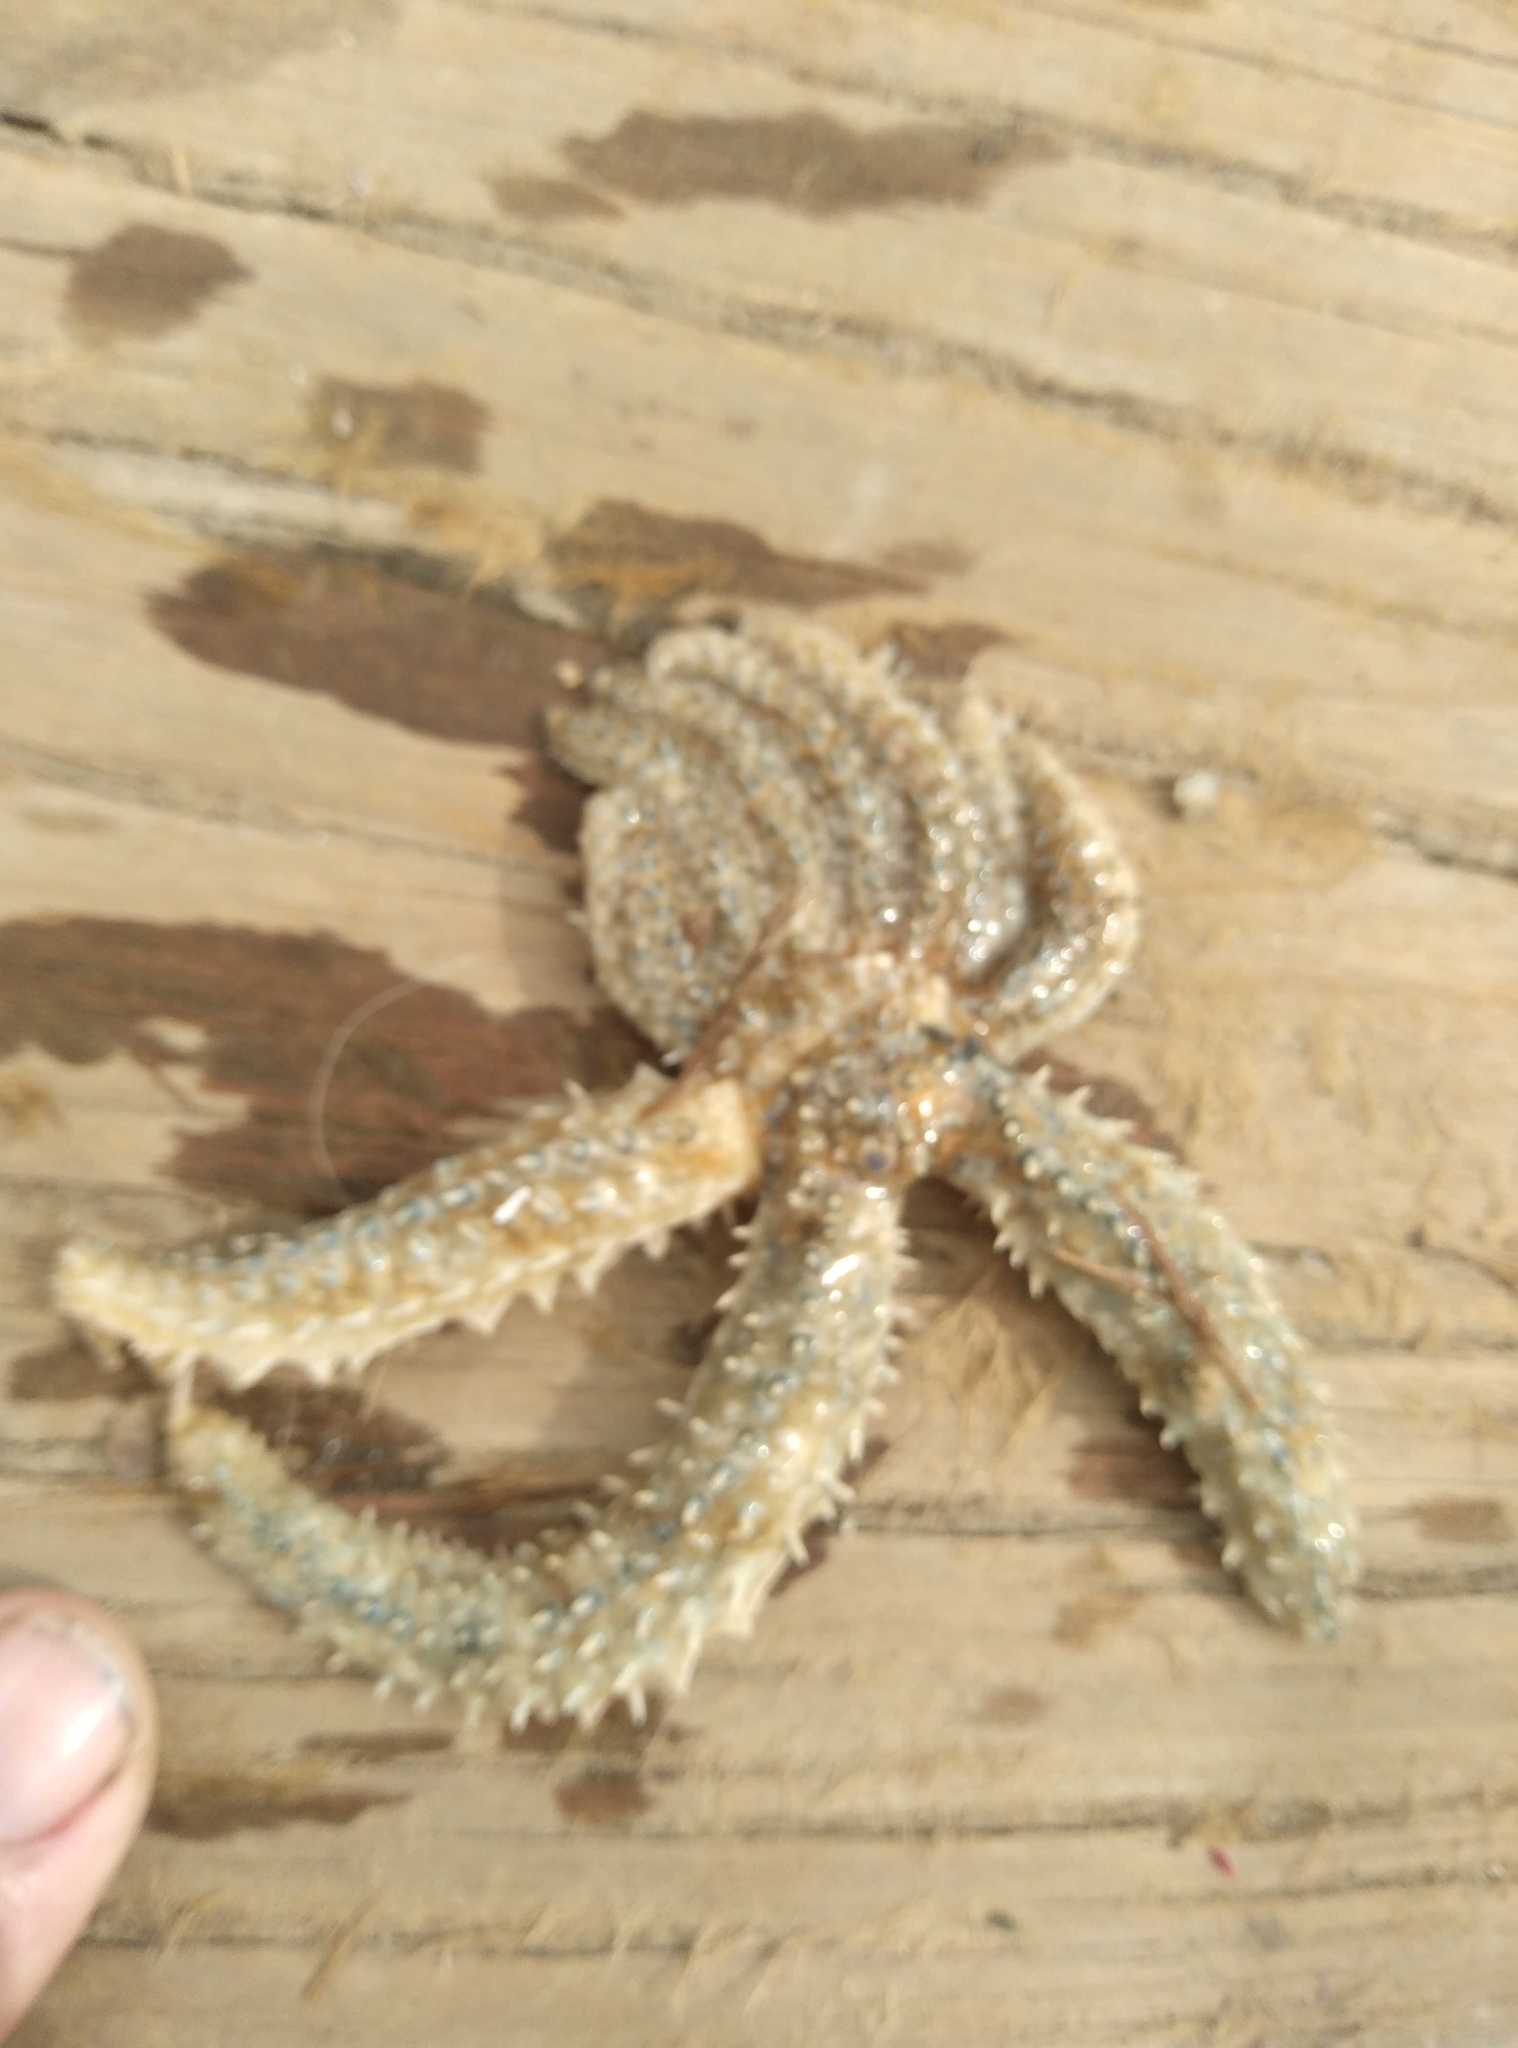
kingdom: Animalia
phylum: Echinodermata
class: Asteroidea
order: Forcipulatida
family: Asteriidae
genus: Coscinasterias
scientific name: Coscinasterias muricata
